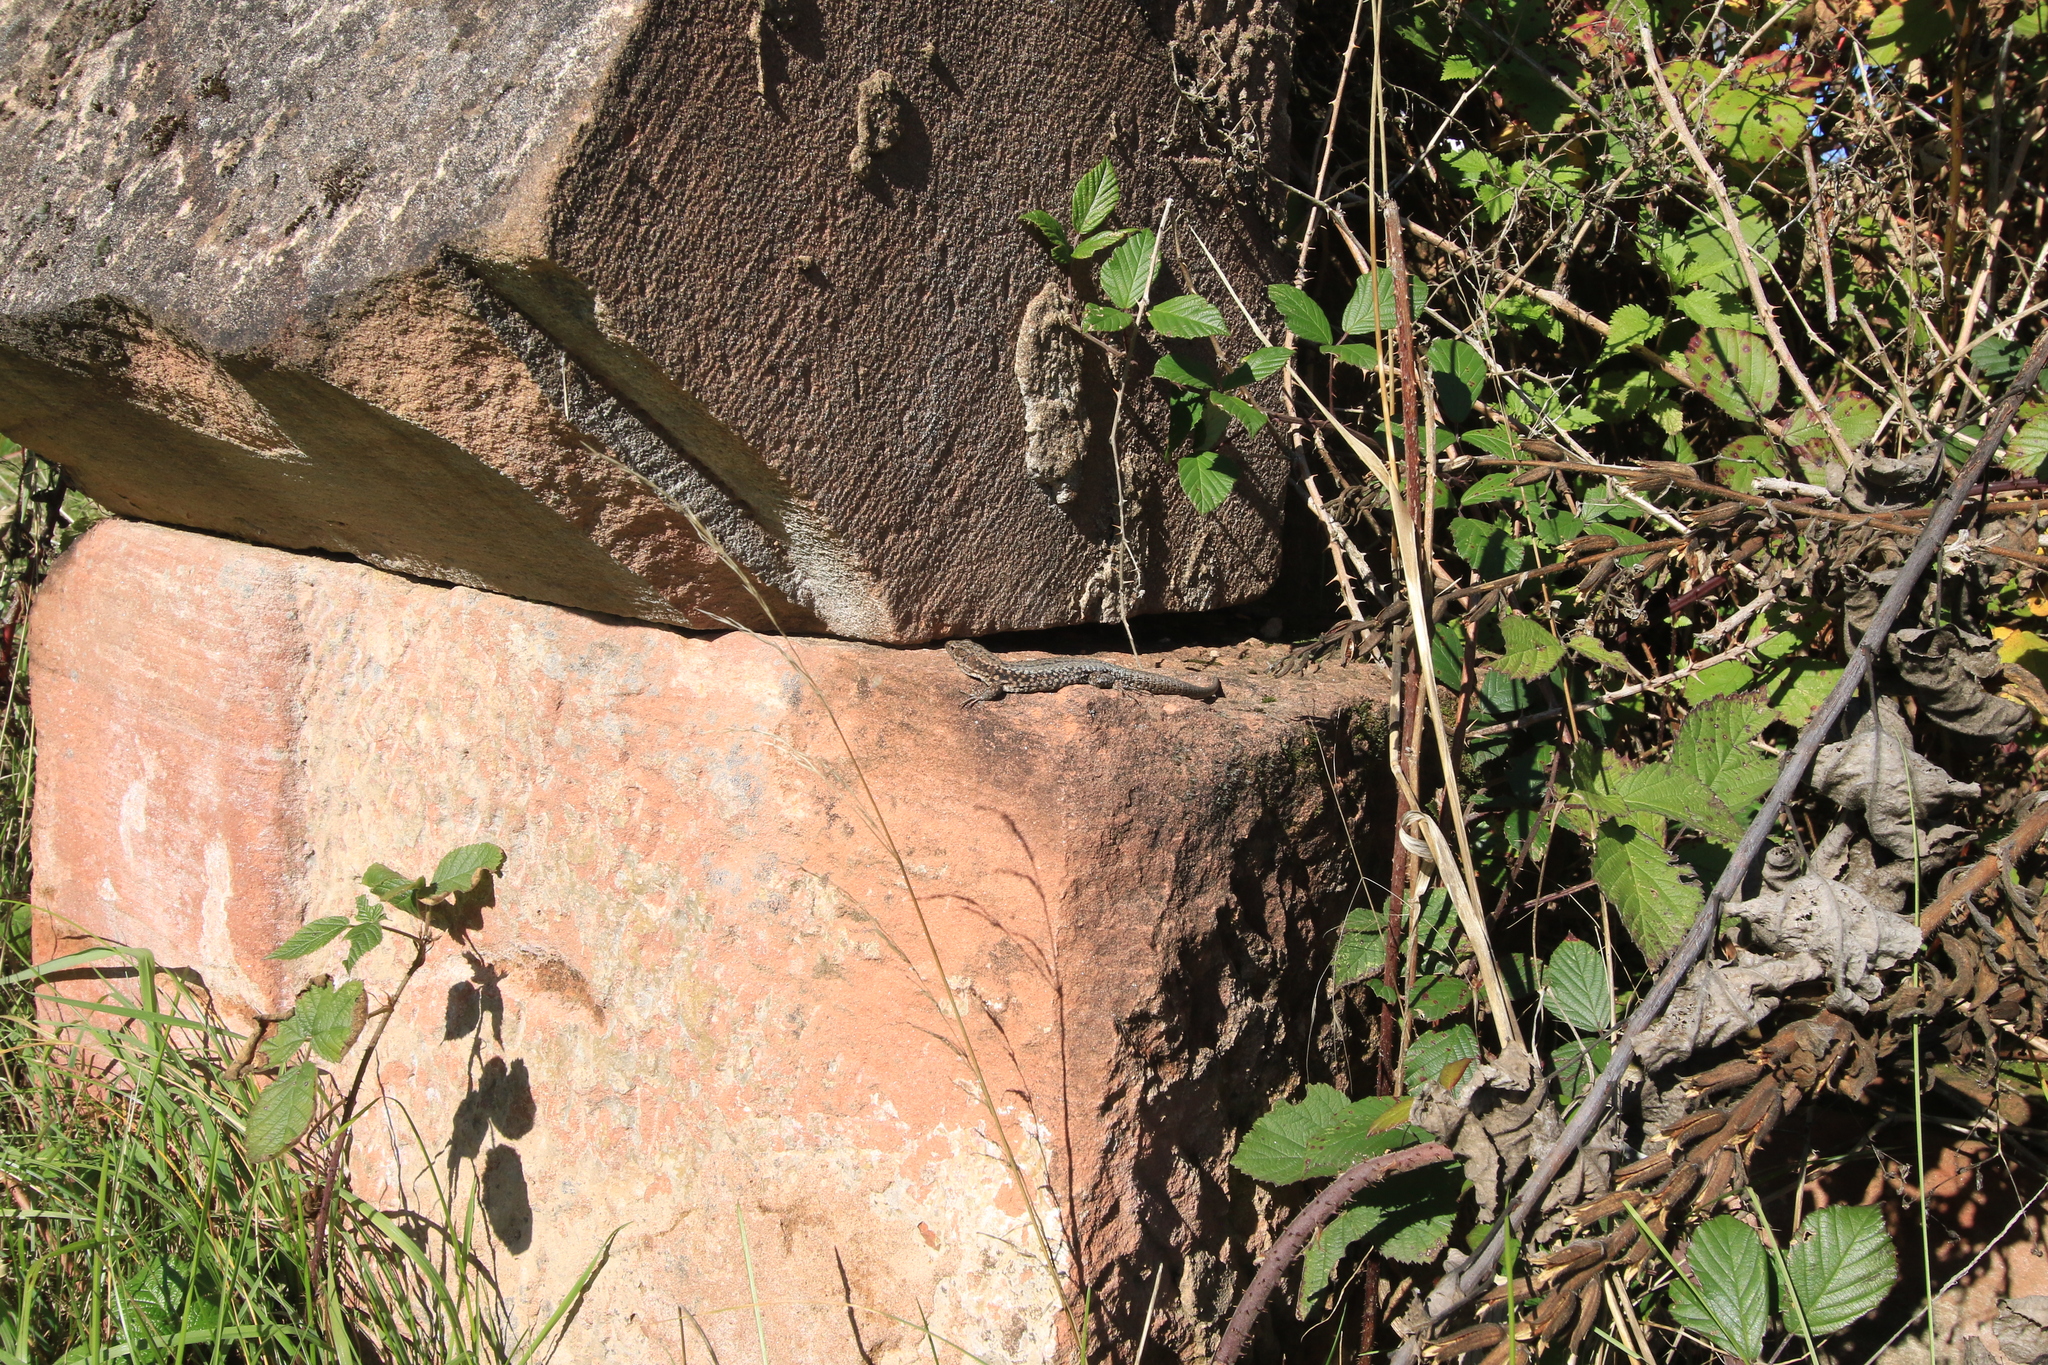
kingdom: Animalia
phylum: Chordata
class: Squamata
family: Lacertidae
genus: Podarcis
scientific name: Podarcis muralis
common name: Common wall lizard
